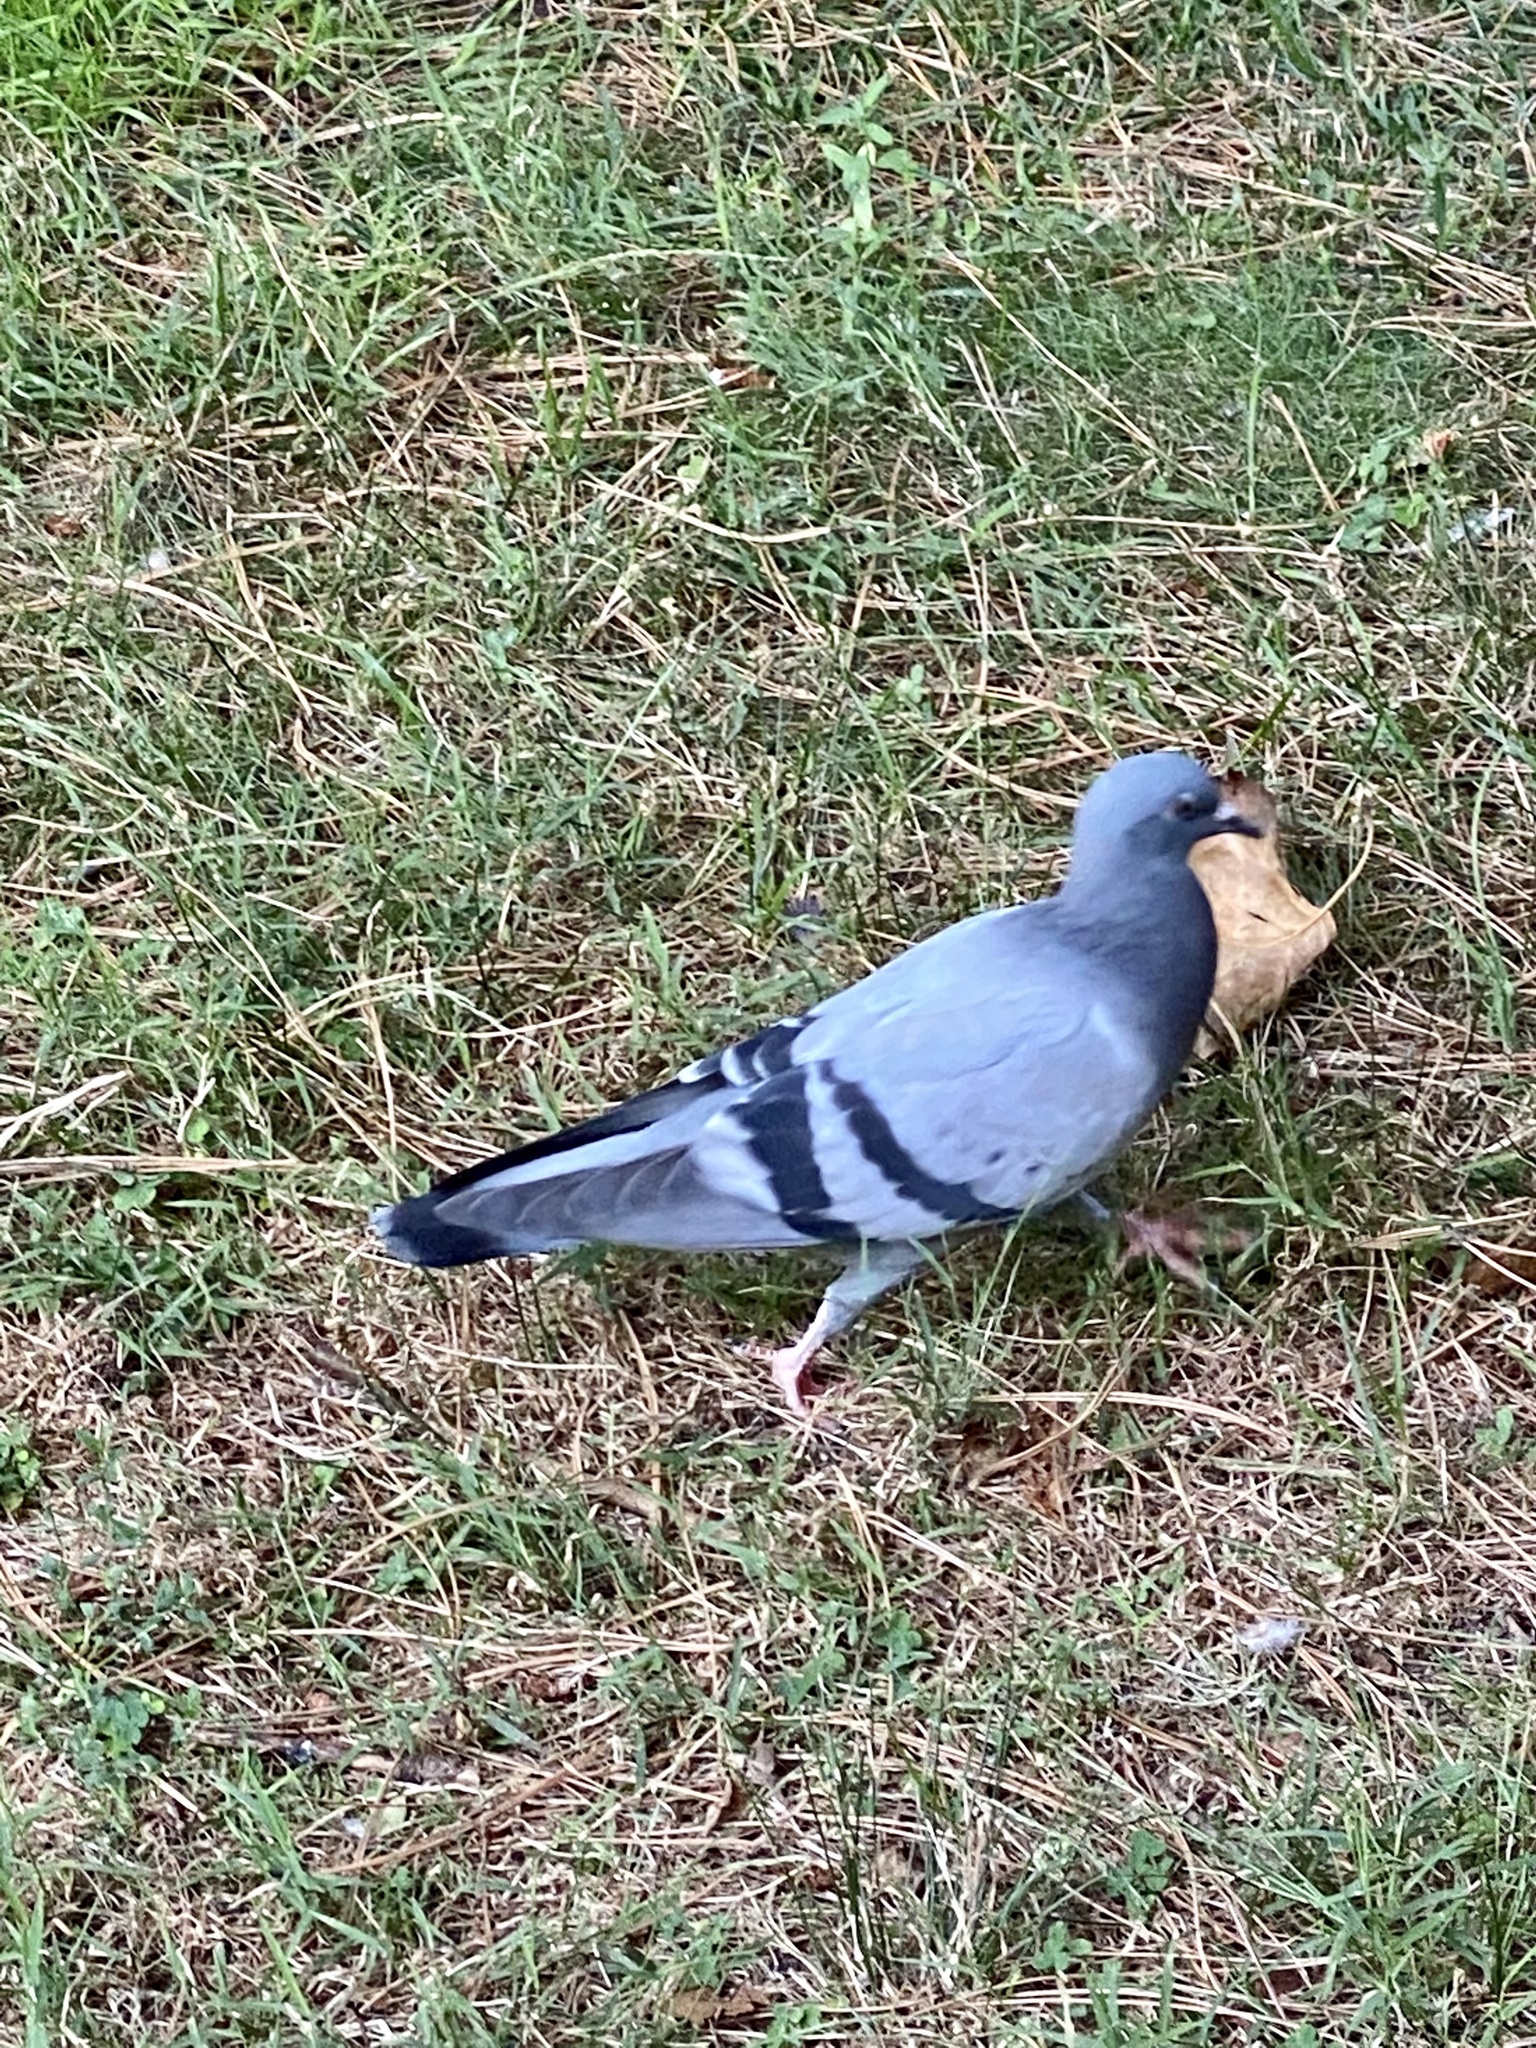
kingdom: Animalia
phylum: Chordata
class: Aves
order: Columbiformes
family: Columbidae
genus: Columba
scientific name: Columba livia
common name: Rock pigeon
